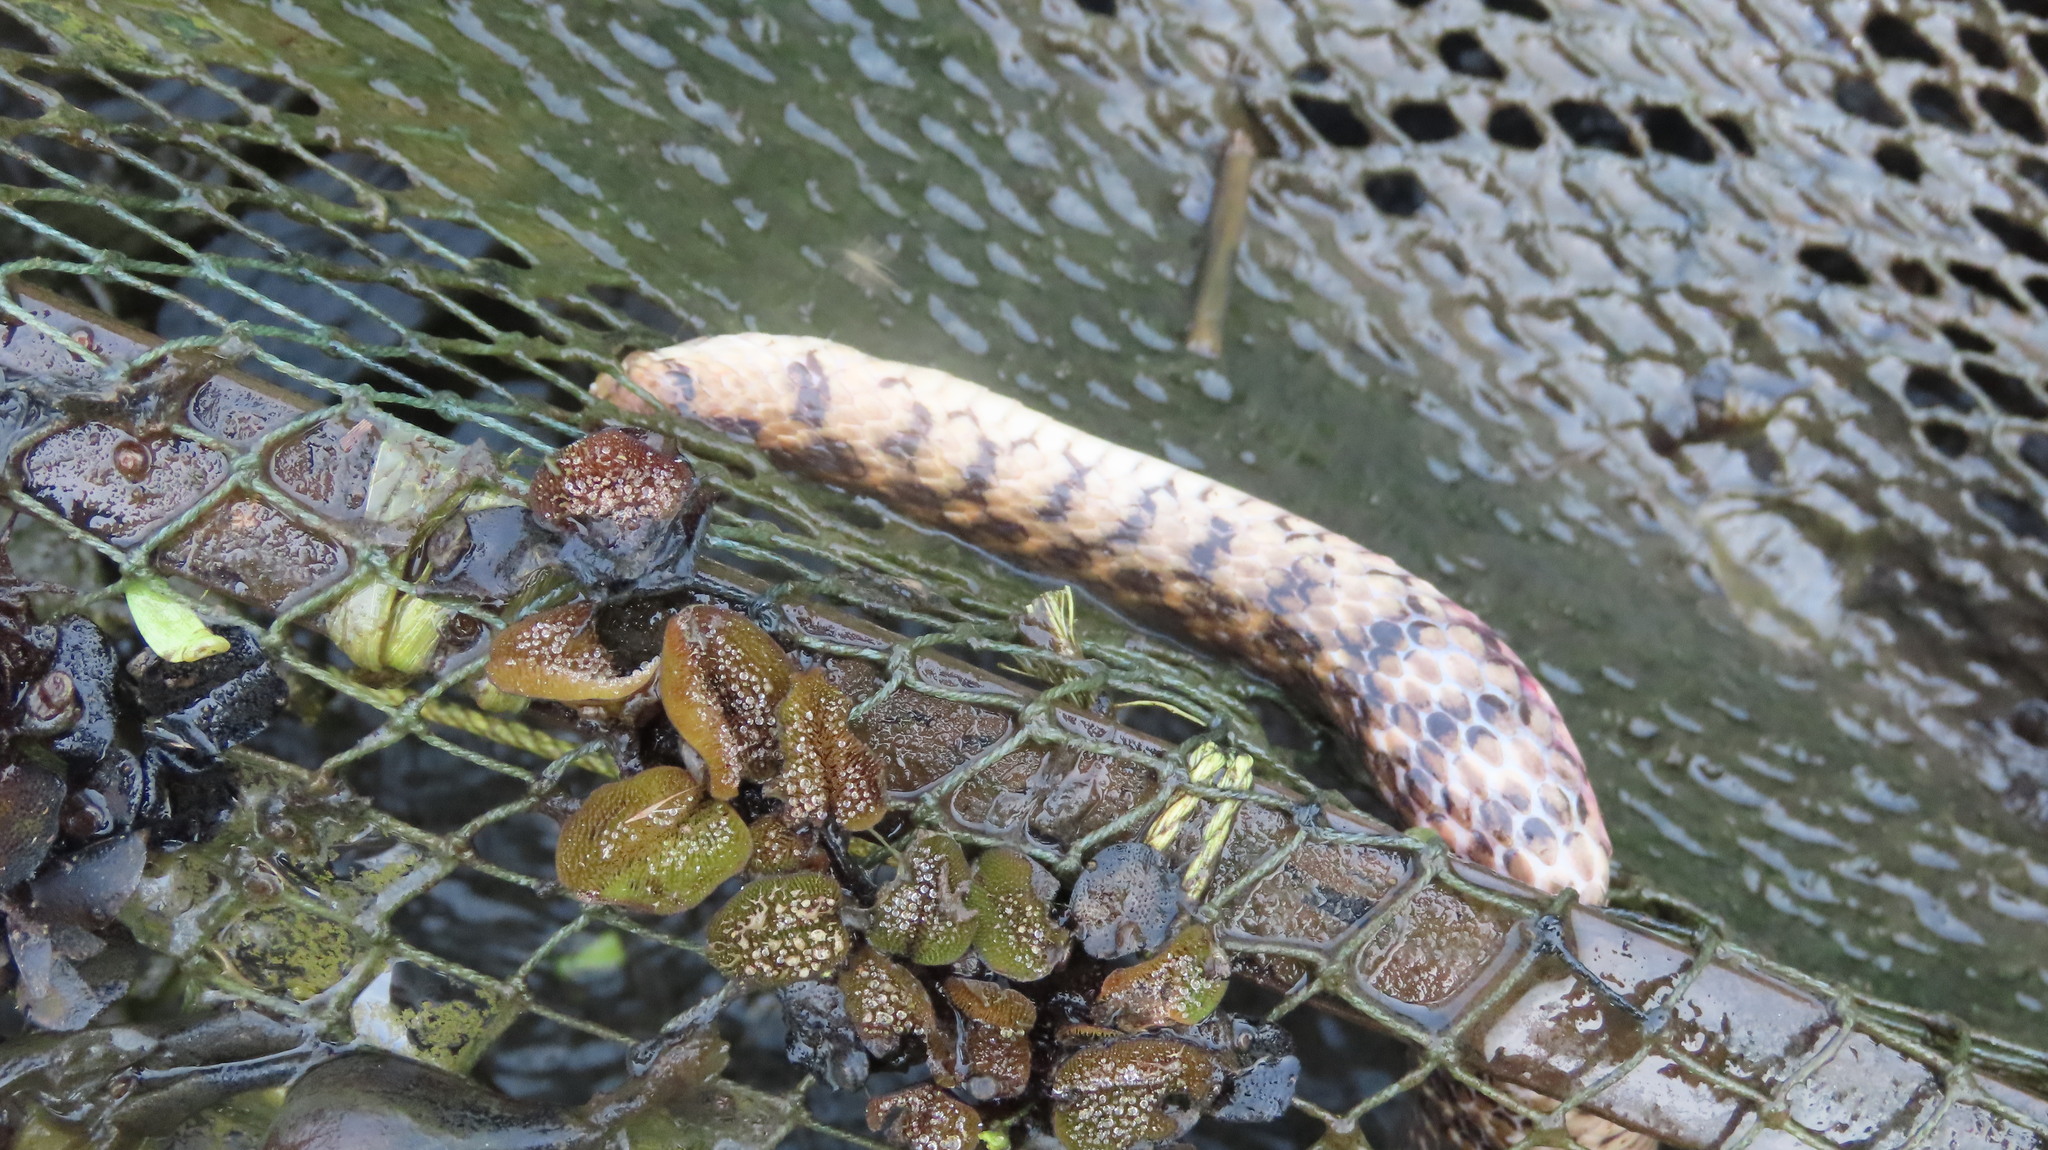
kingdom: Animalia
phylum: Chordata
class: Squamata
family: Colubridae
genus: Fowlea
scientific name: Fowlea piscator
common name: Asiatic water snake
